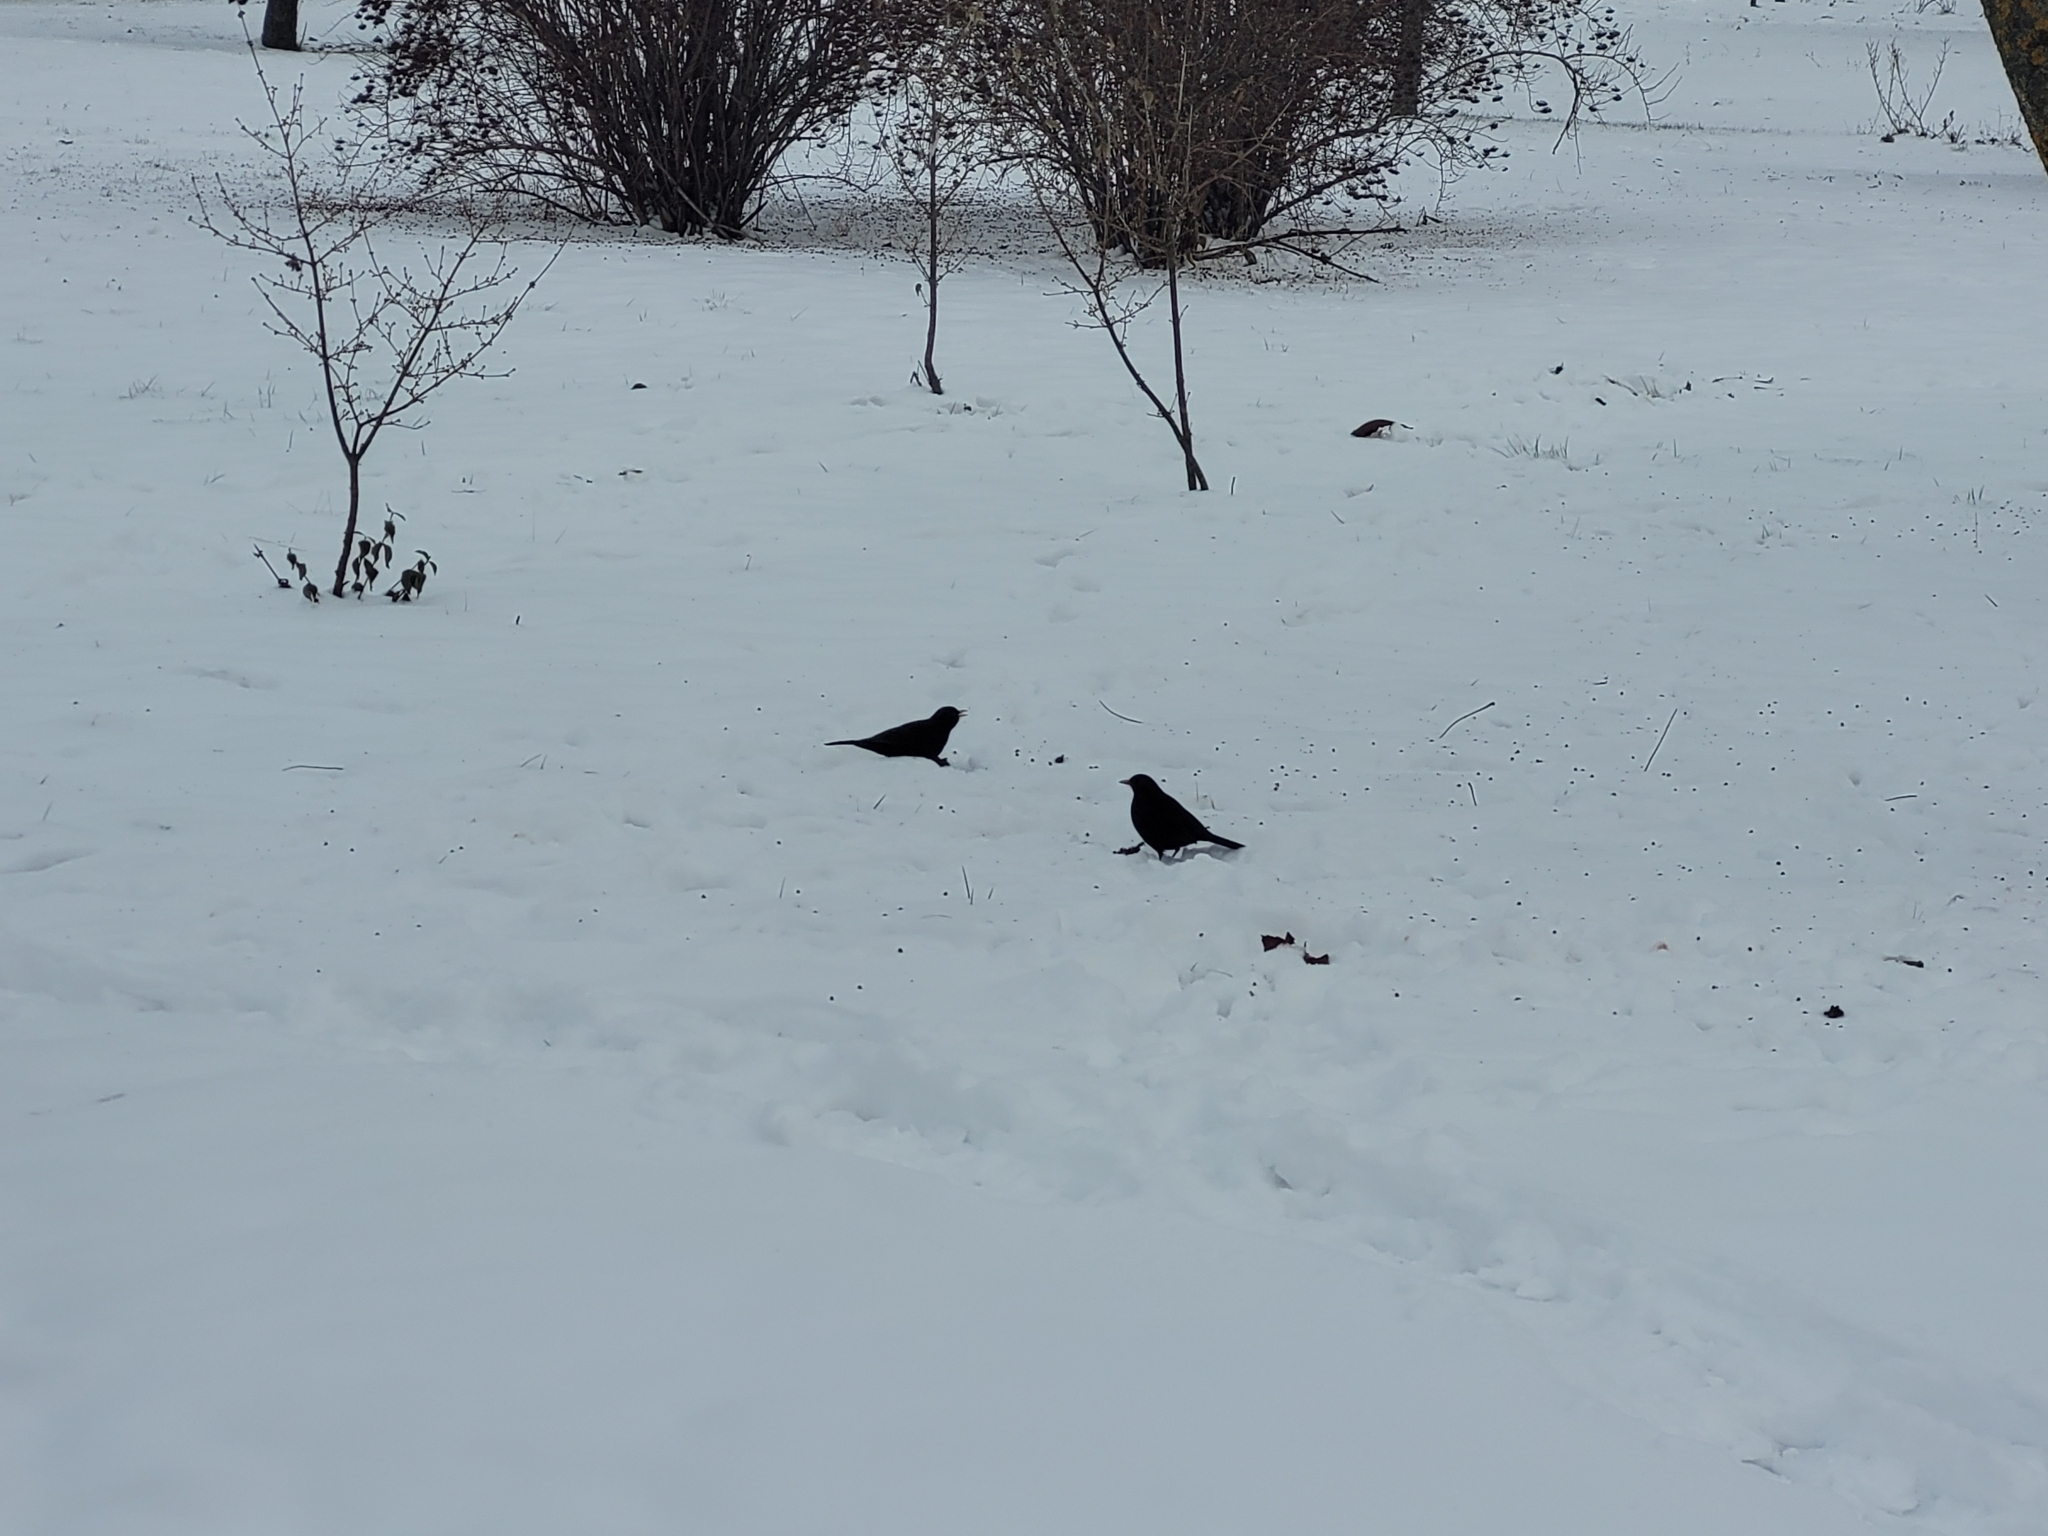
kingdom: Animalia
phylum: Chordata
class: Aves
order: Passeriformes
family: Turdidae
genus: Turdus
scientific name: Turdus merula
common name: Common blackbird
